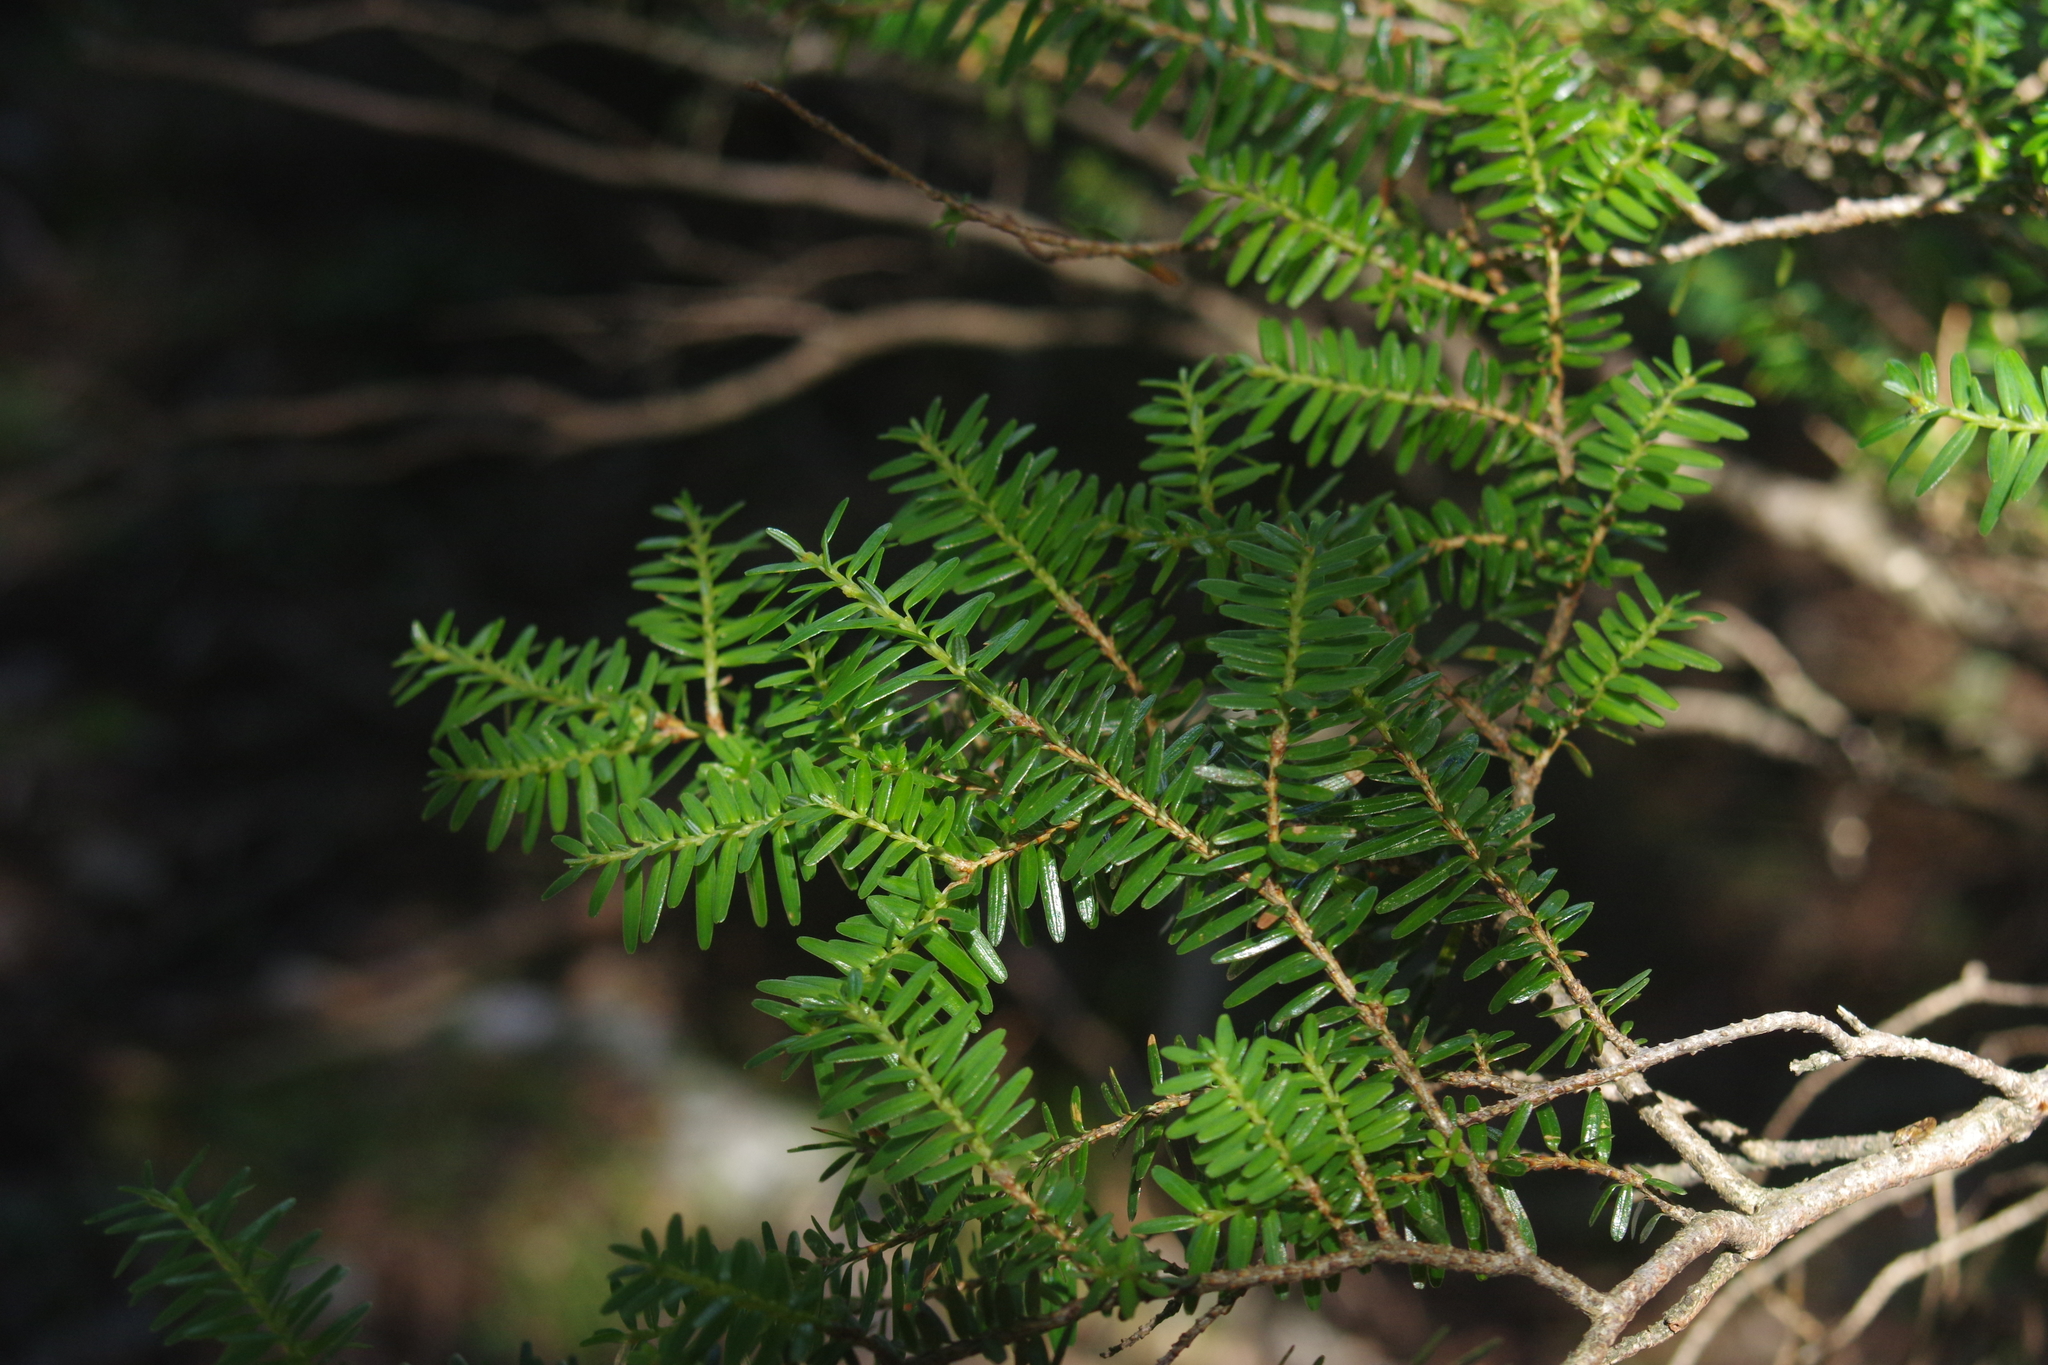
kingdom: Plantae
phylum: Tracheophyta
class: Pinopsida
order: Pinales
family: Pinaceae
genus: Tsuga
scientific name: Tsuga chinensis
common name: Chinese hemlock
